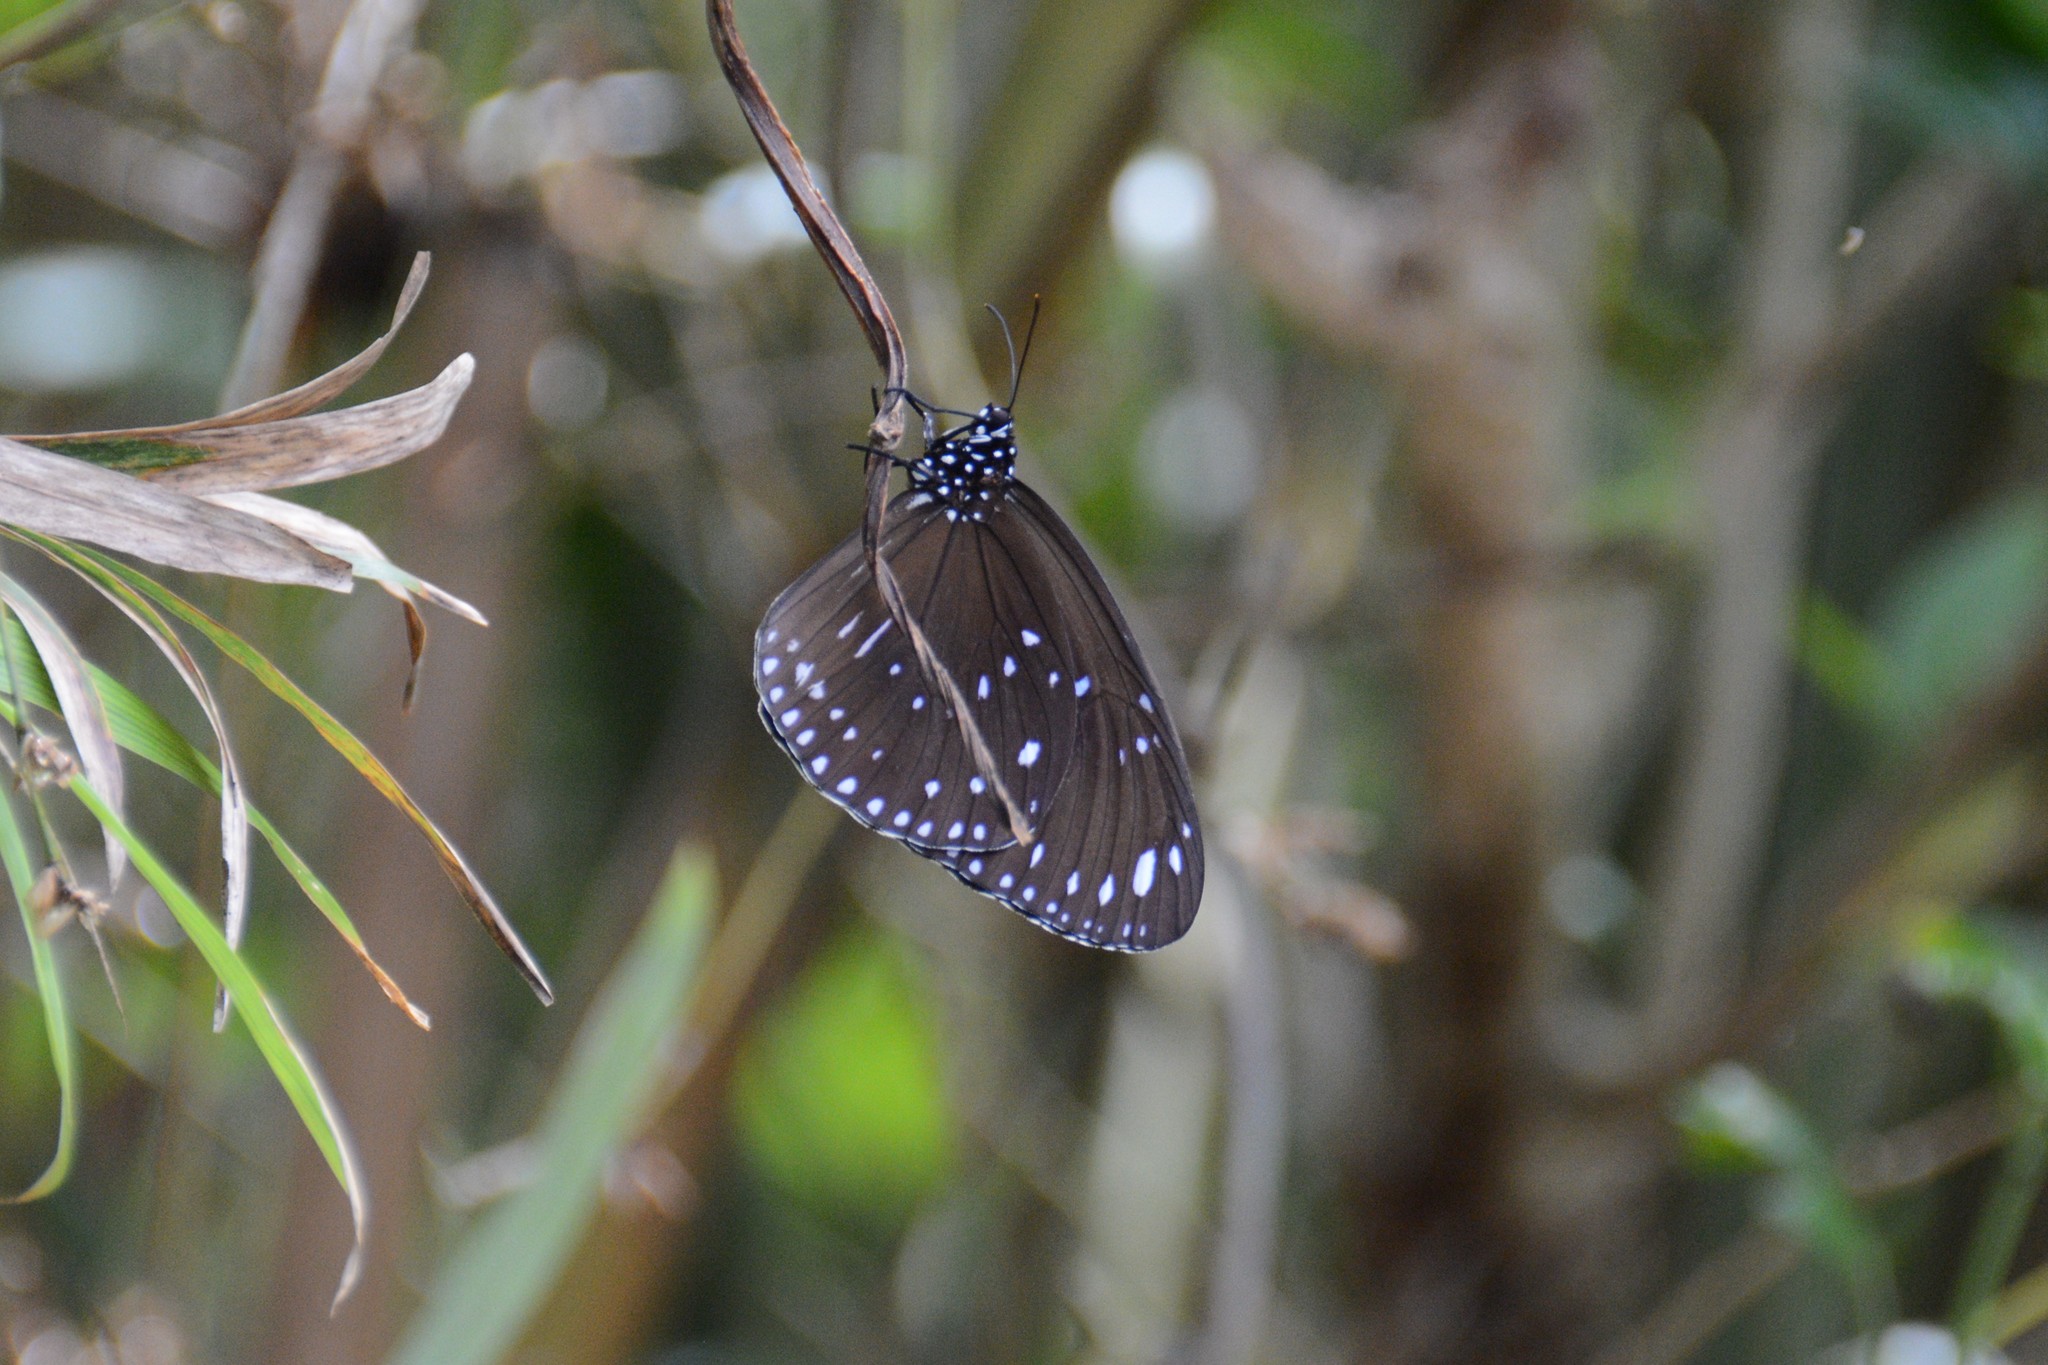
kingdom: Animalia
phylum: Arthropoda
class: Insecta
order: Lepidoptera
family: Nymphalidae
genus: Euploea
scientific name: Euploea mulciber
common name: Striped blue crow butterfly
